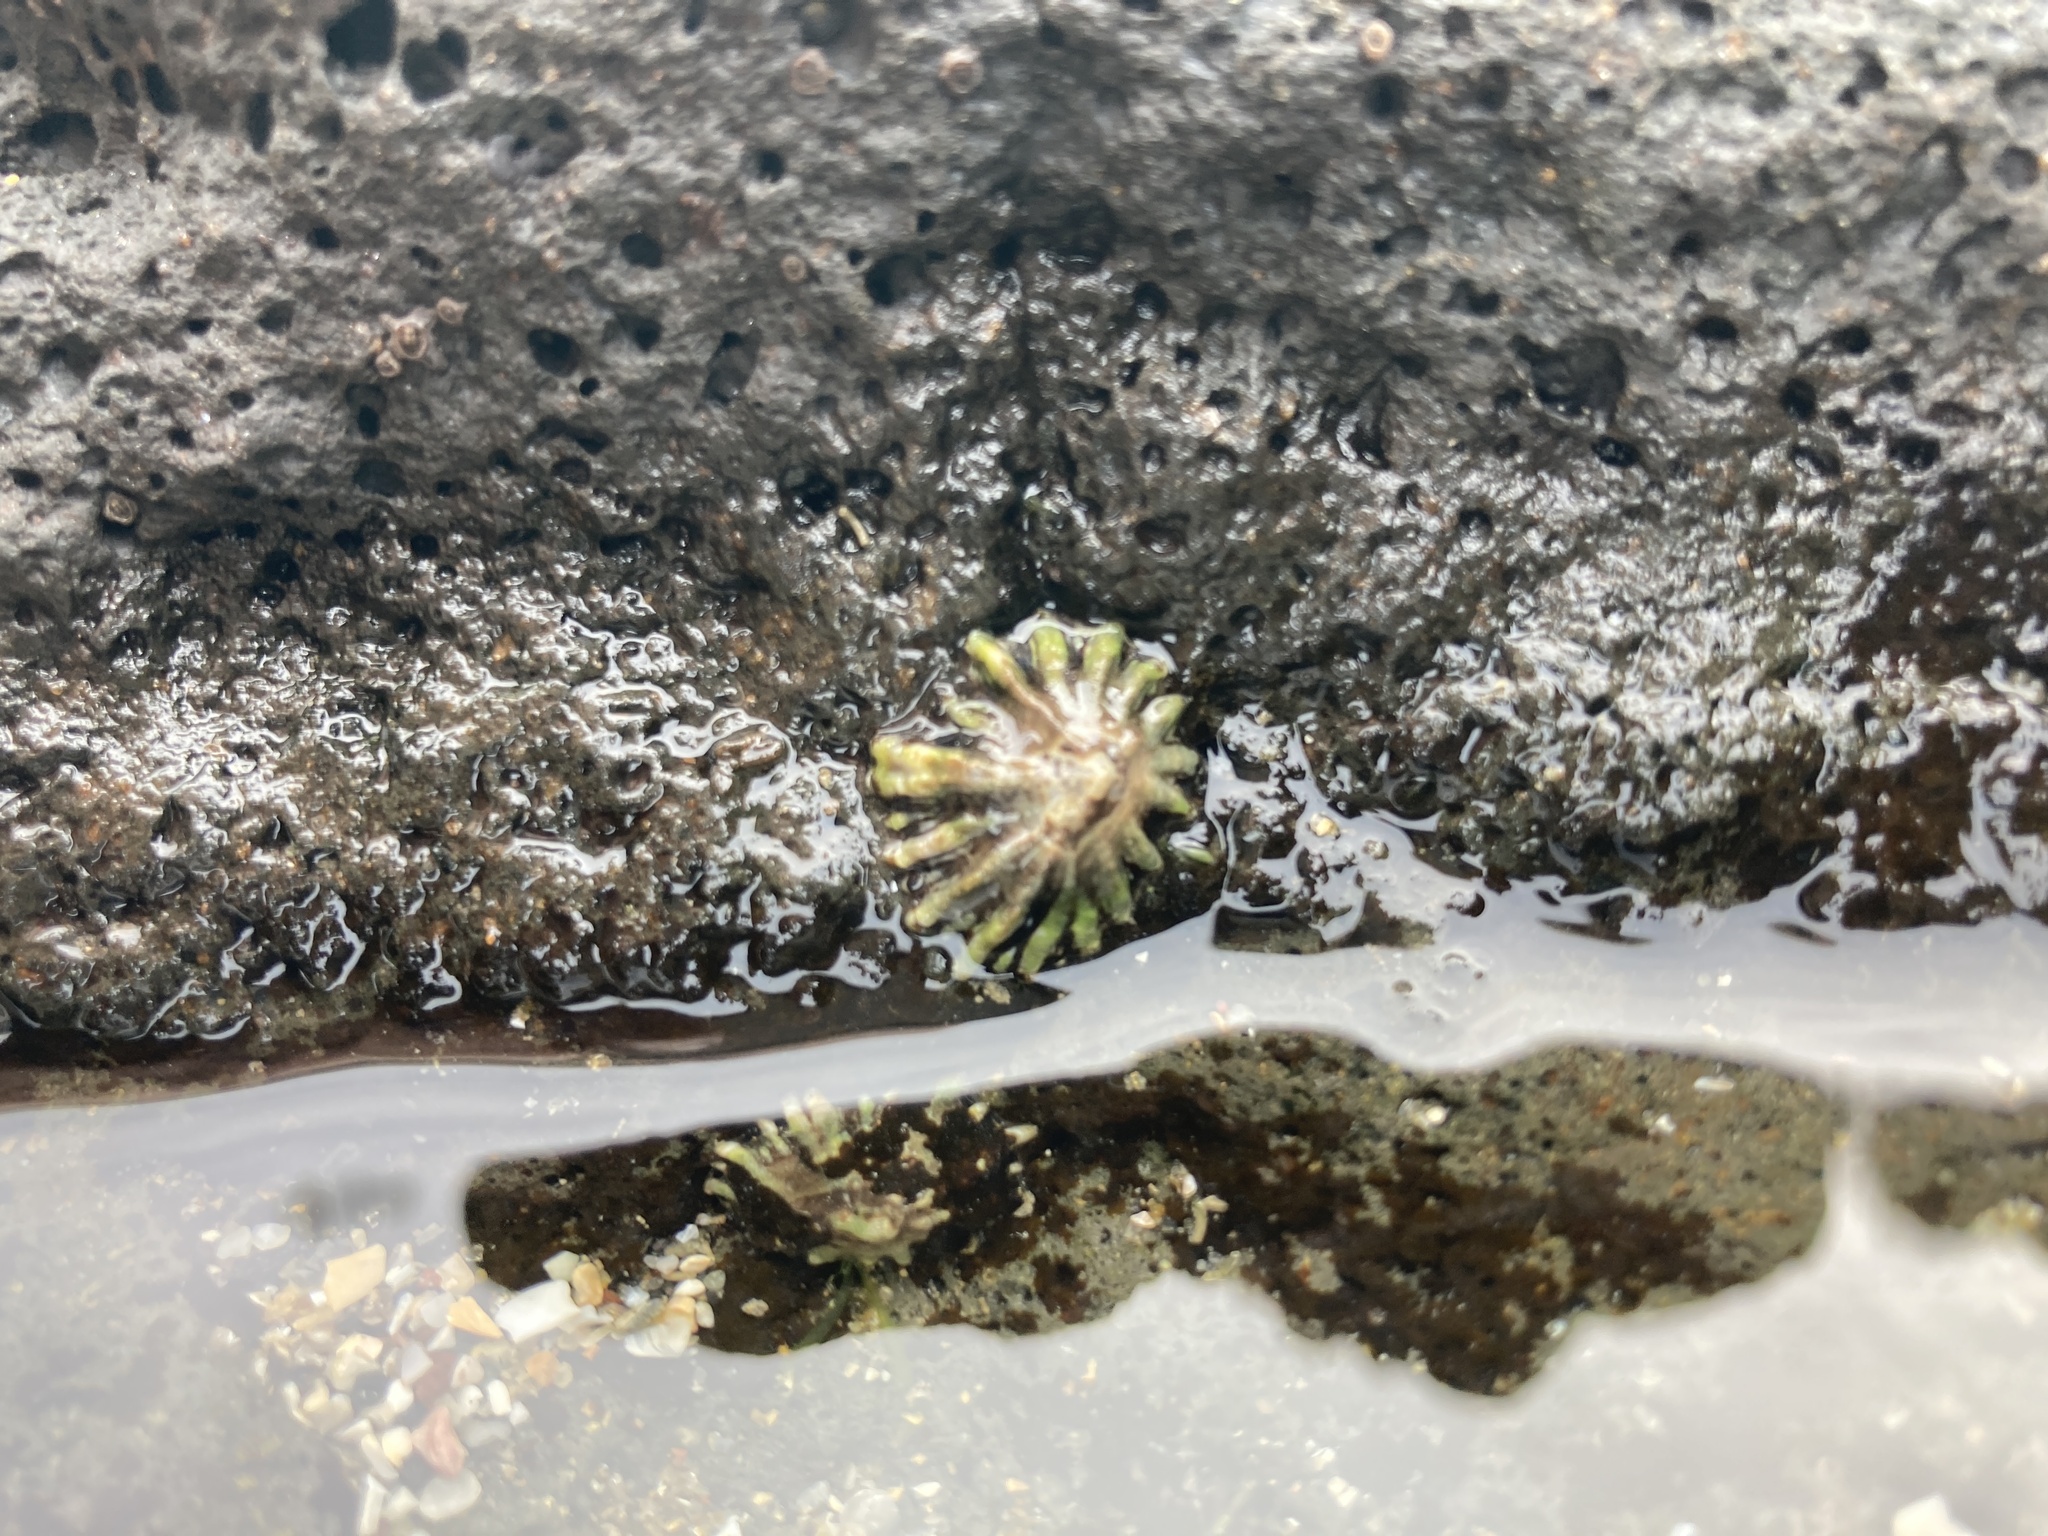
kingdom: Animalia
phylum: Mollusca
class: Gastropoda
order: Siphonariida
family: Siphonariidae
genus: Siphonaria
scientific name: Siphonaria australis
